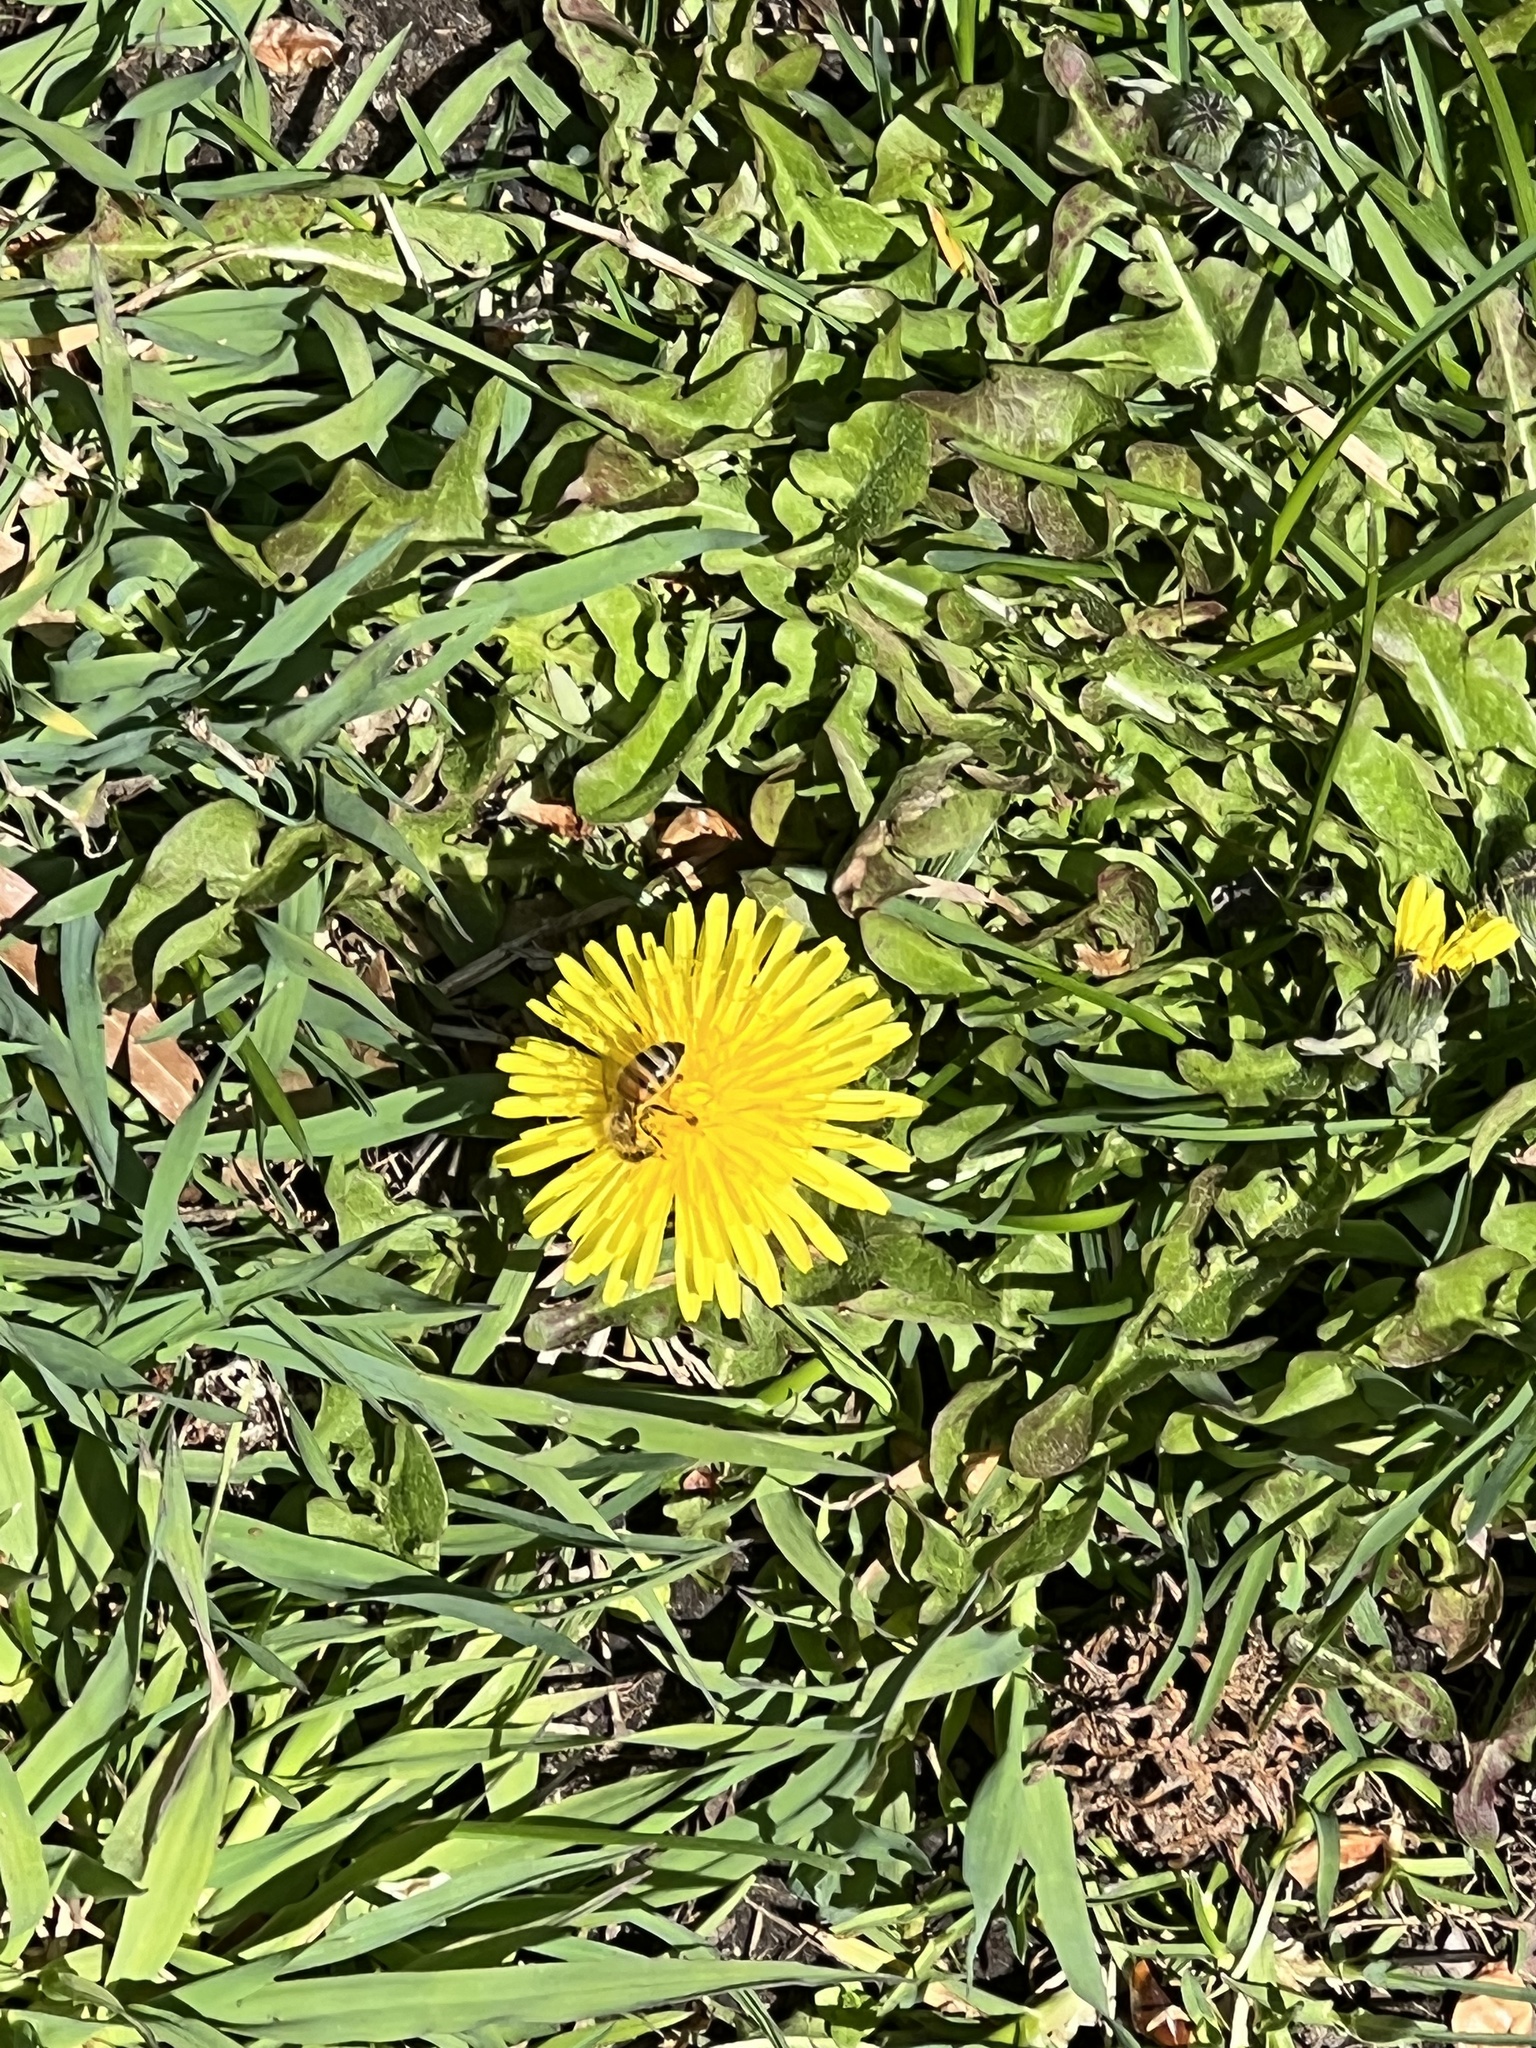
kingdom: Animalia
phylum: Arthropoda
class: Insecta
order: Hymenoptera
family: Apidae
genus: Apis
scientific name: Apis mellifera
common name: Honey bee
